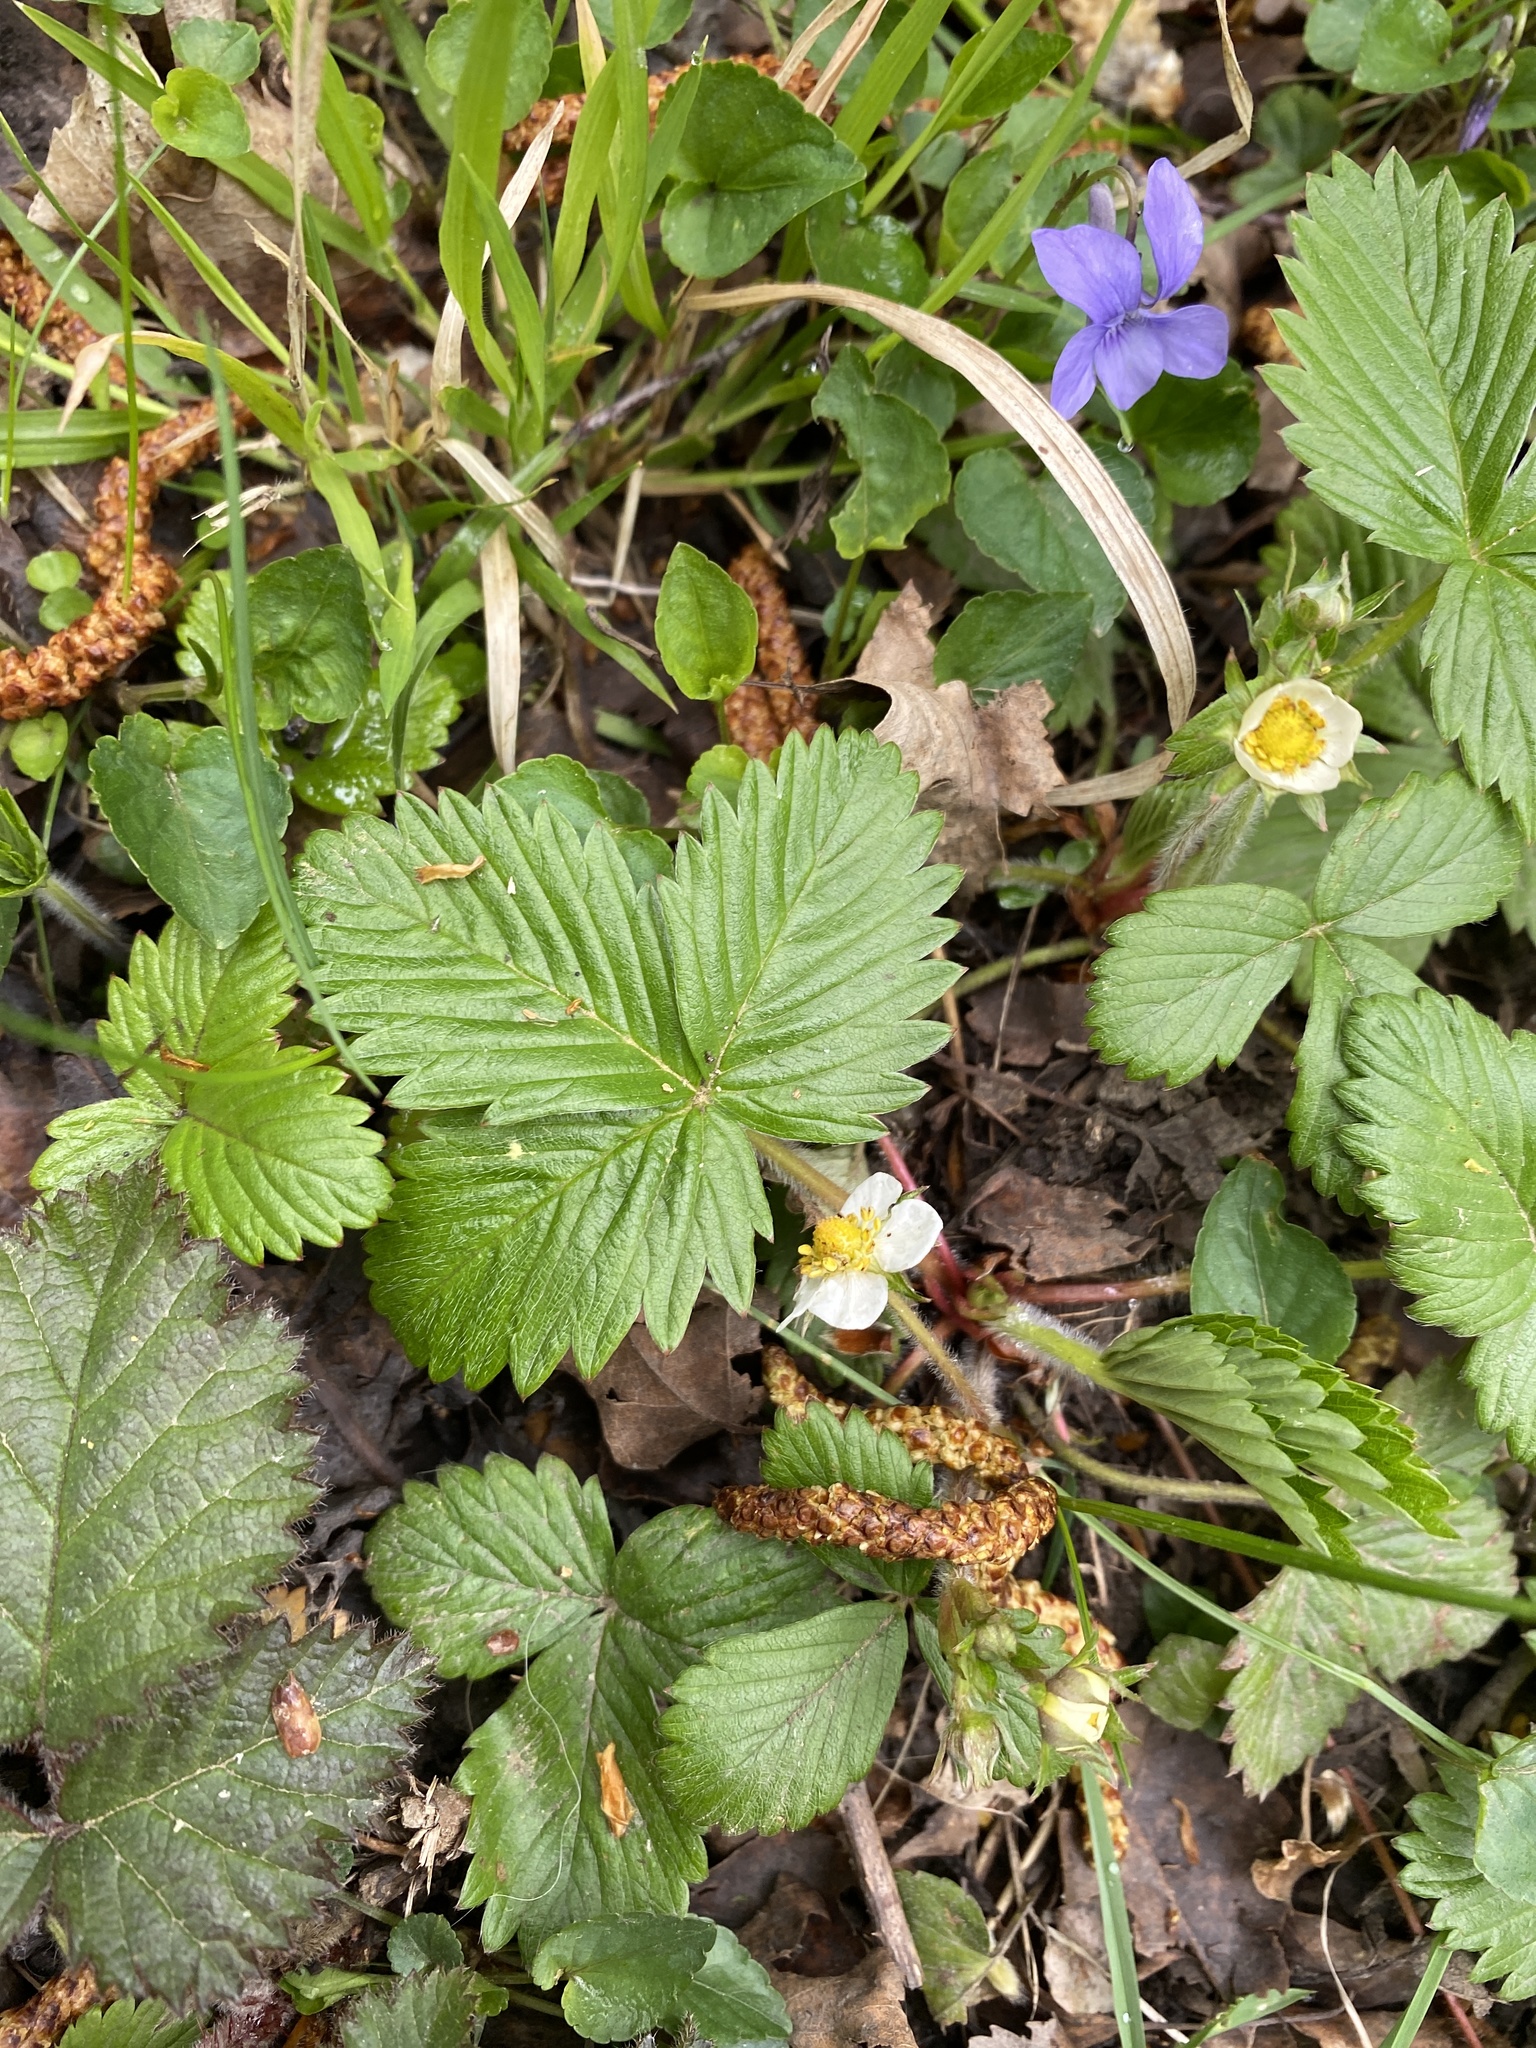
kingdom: Plantae
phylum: Tracheophyta
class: Magnoliopsida
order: Rosales
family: Rosaceae
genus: Fragaria
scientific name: Fragaria vesca
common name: Wild strawberry
